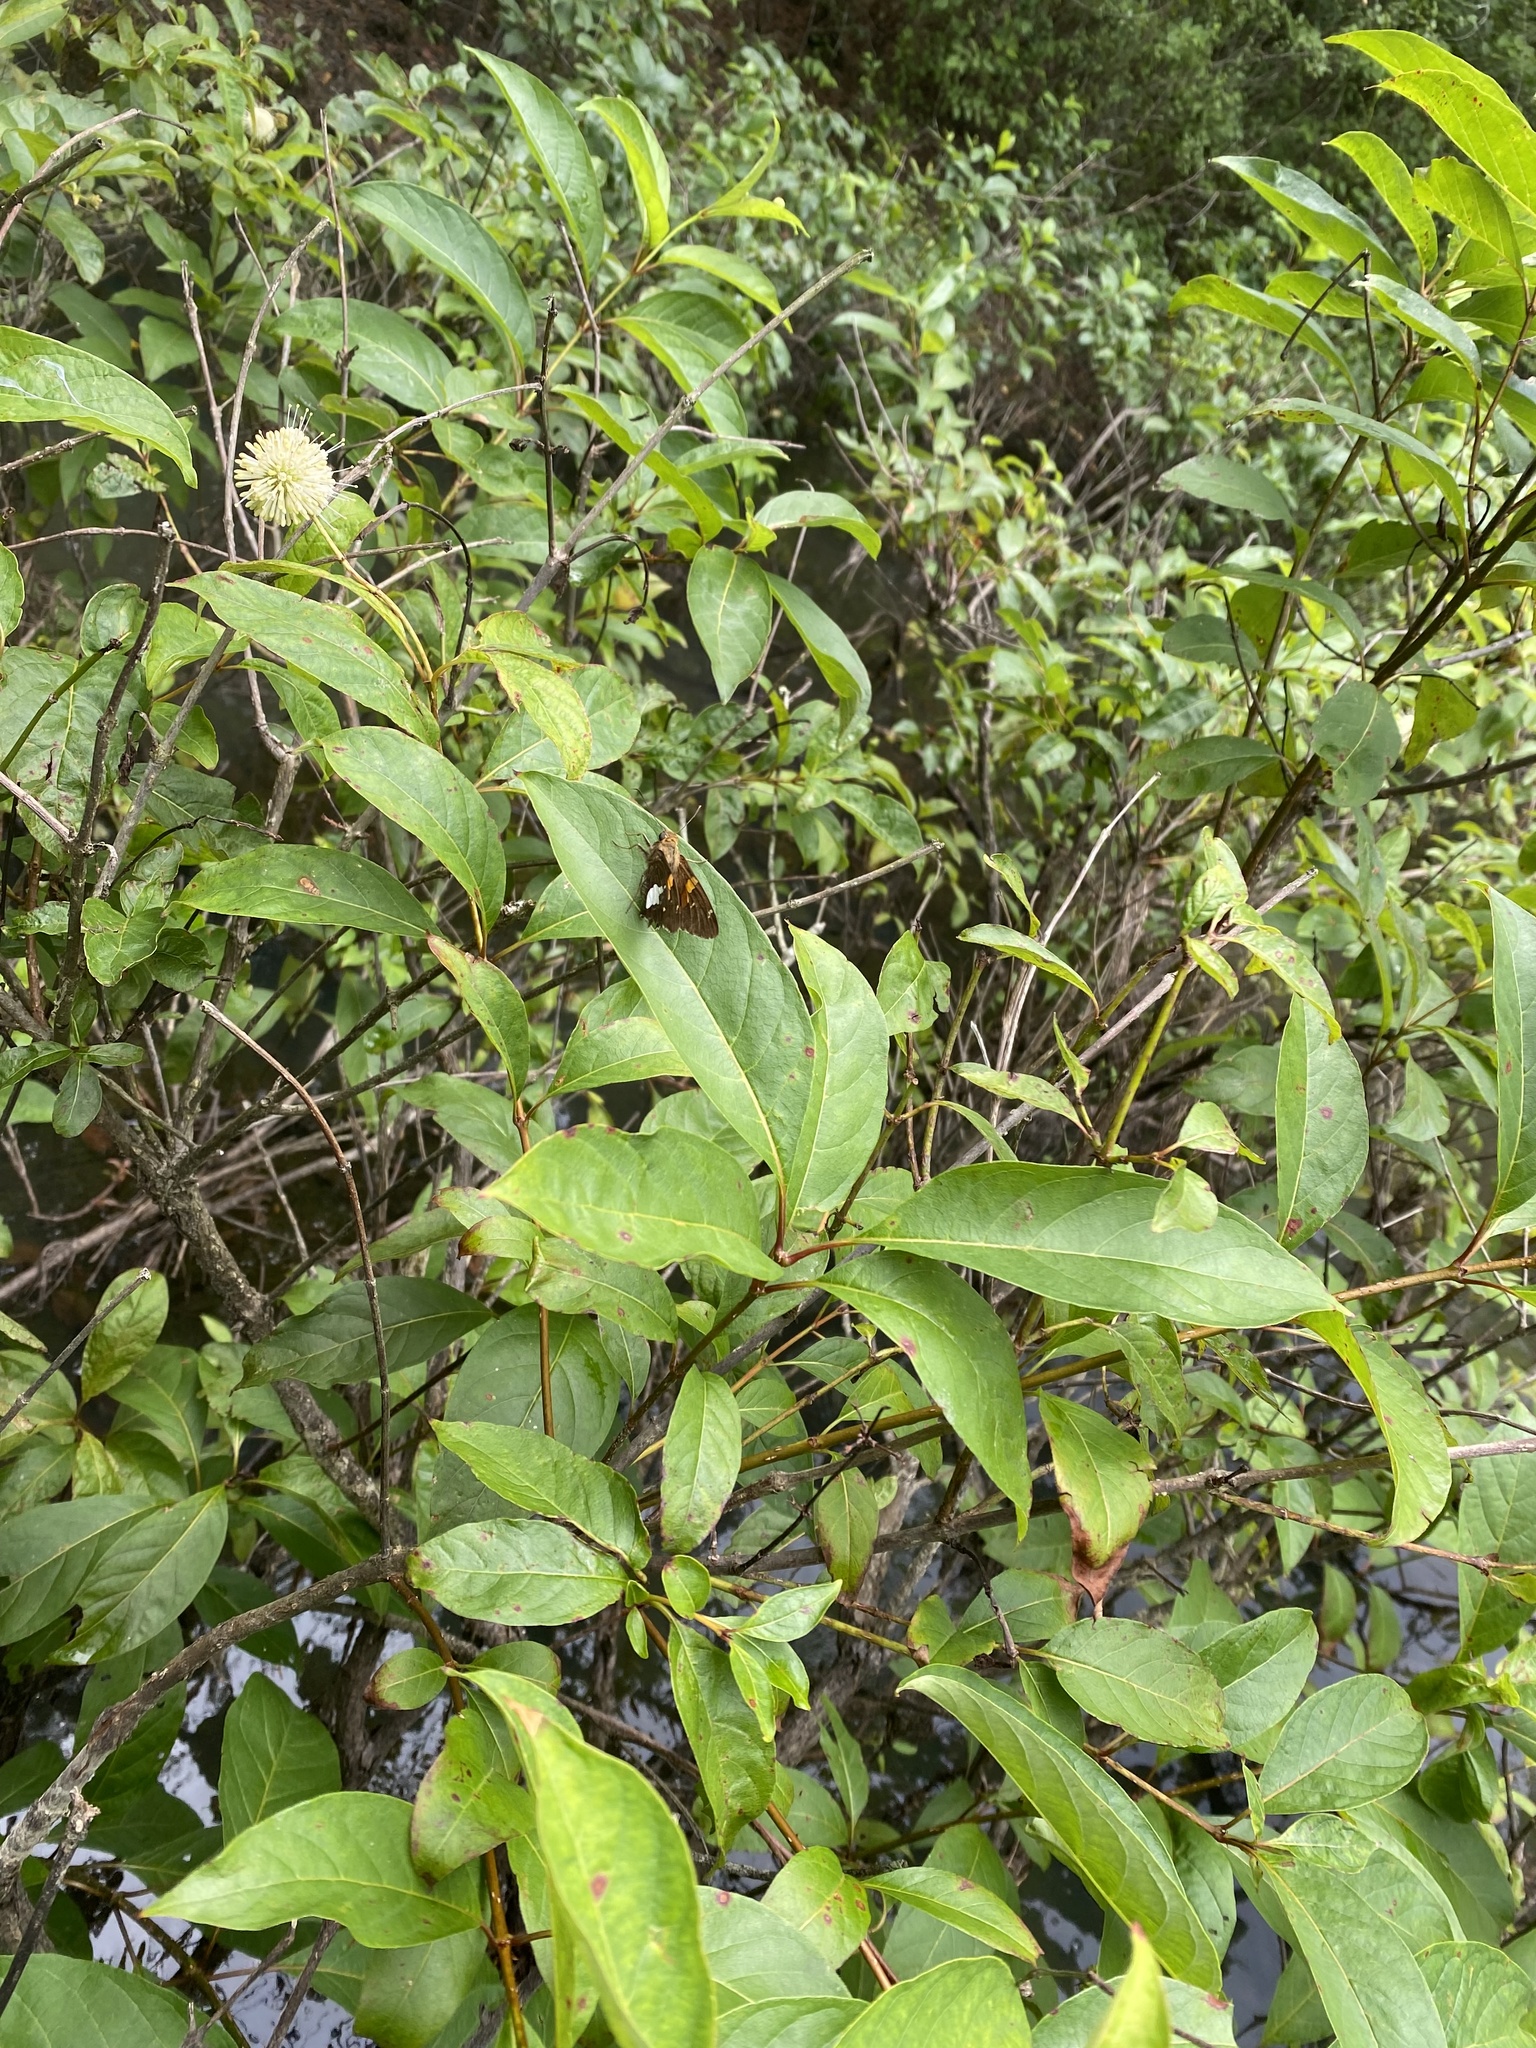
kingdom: Animalia
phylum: Arthropoda
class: Insecta
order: Lepidoptera
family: Hesperiidae
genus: Epargyreus
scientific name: Epargyreus clarus
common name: Silver-spotted skipper
